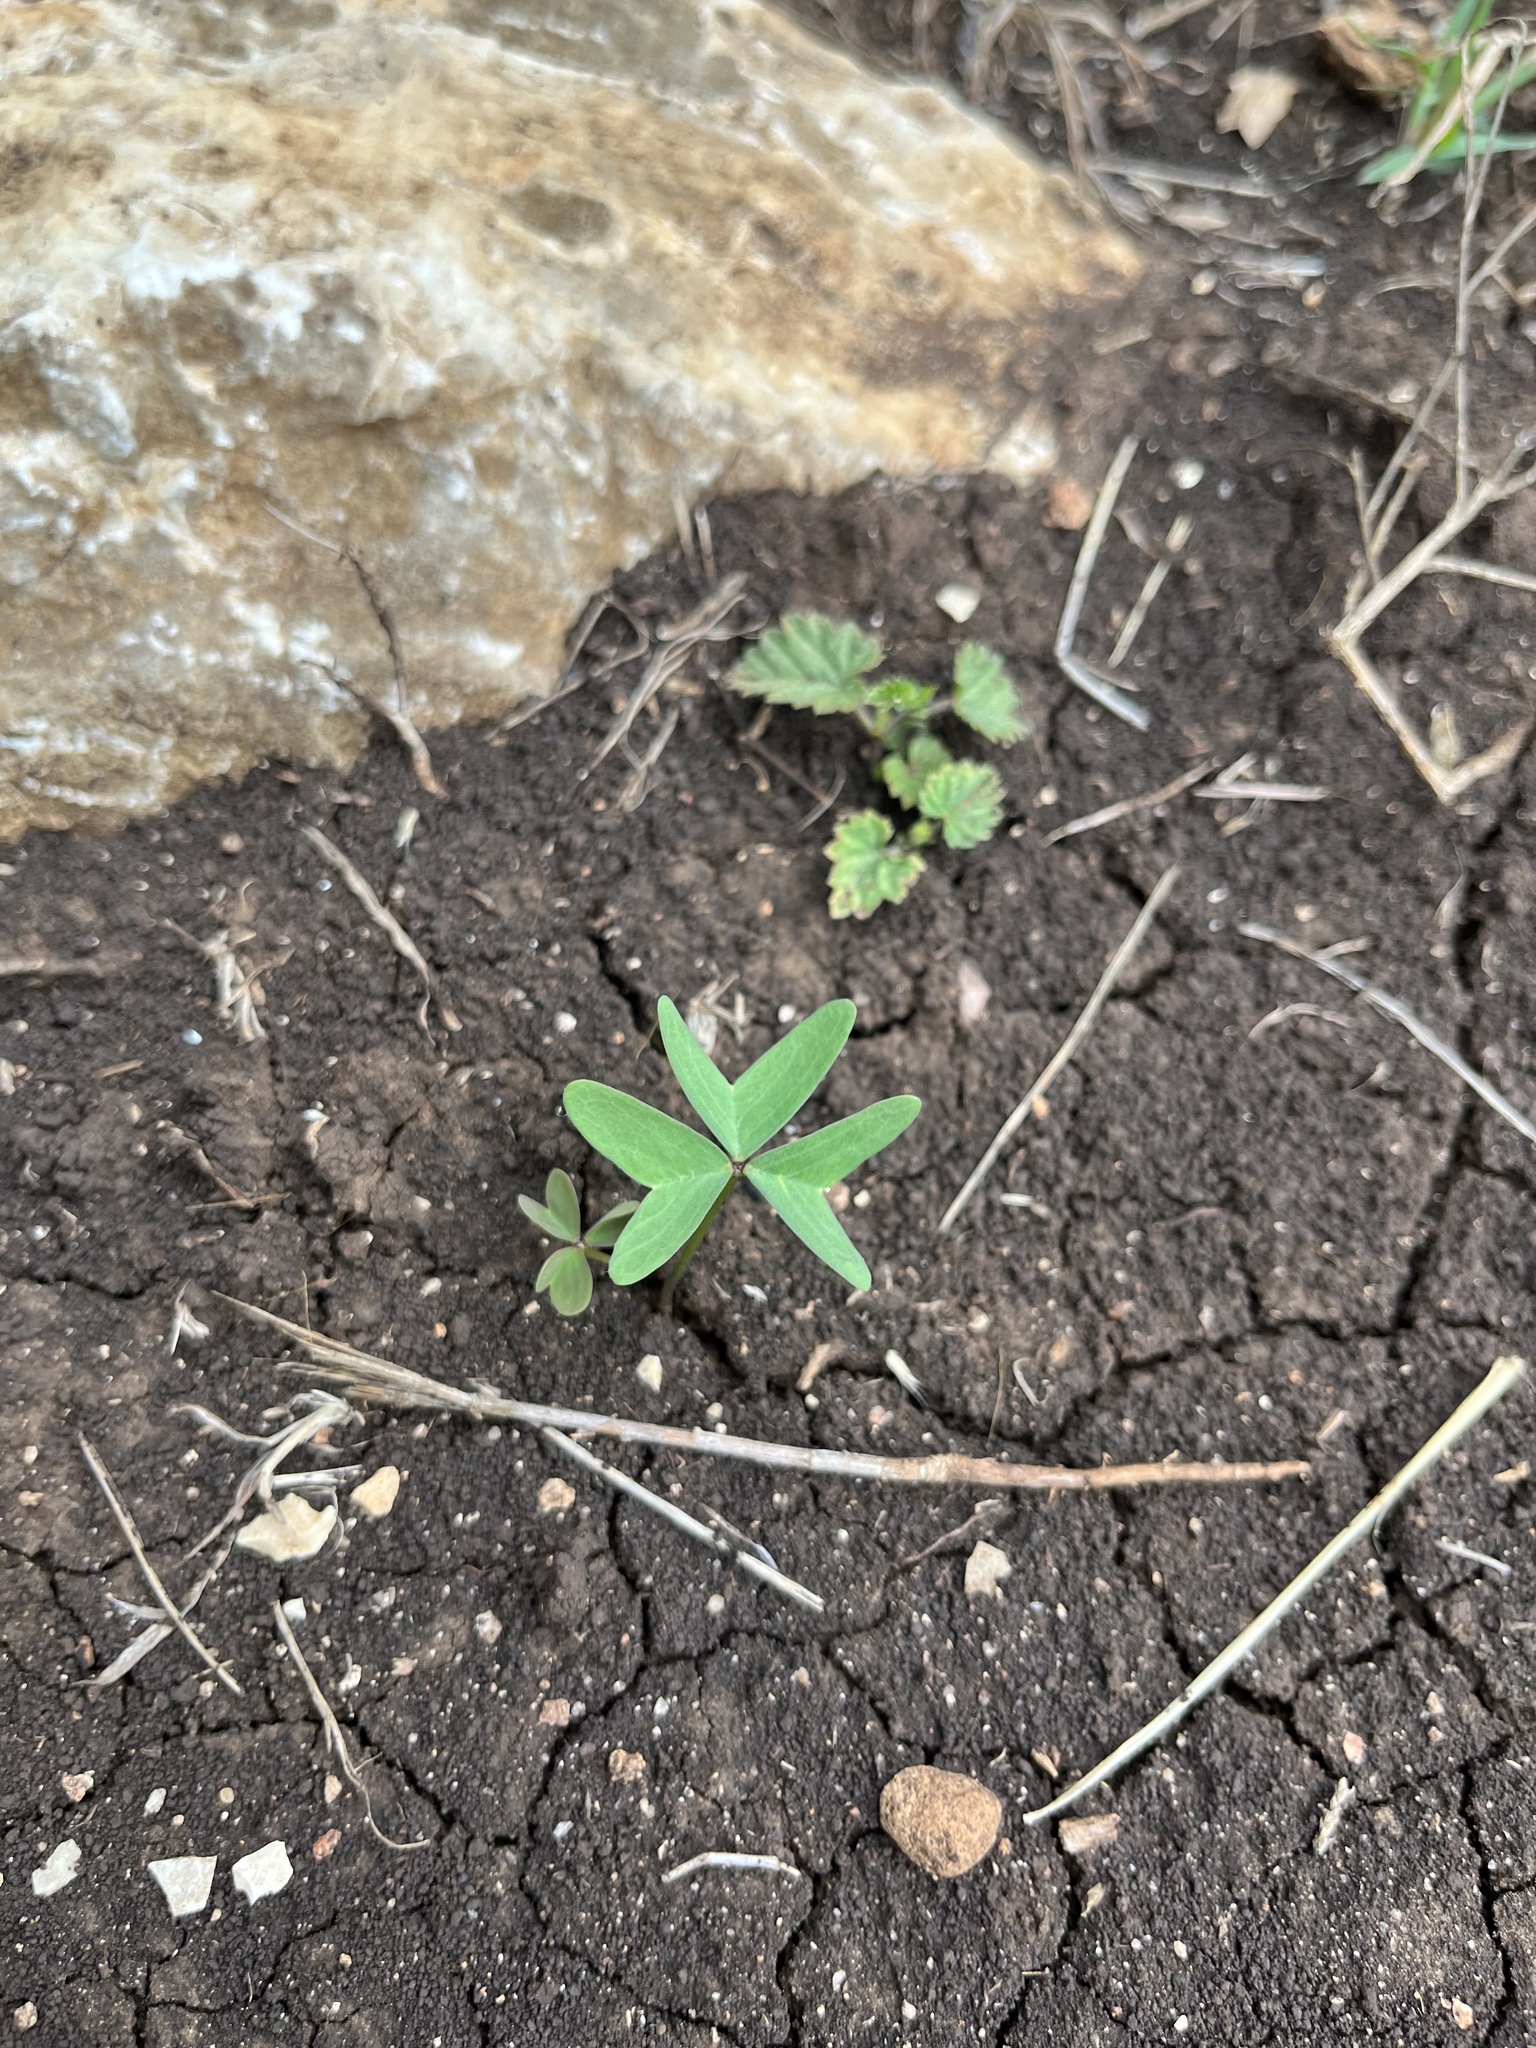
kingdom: Plantae
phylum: Tracheophyta
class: Magnoliopsida
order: Oxalidales
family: Oxalidaceae
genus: Oxalis
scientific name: Oxalis drummondii
